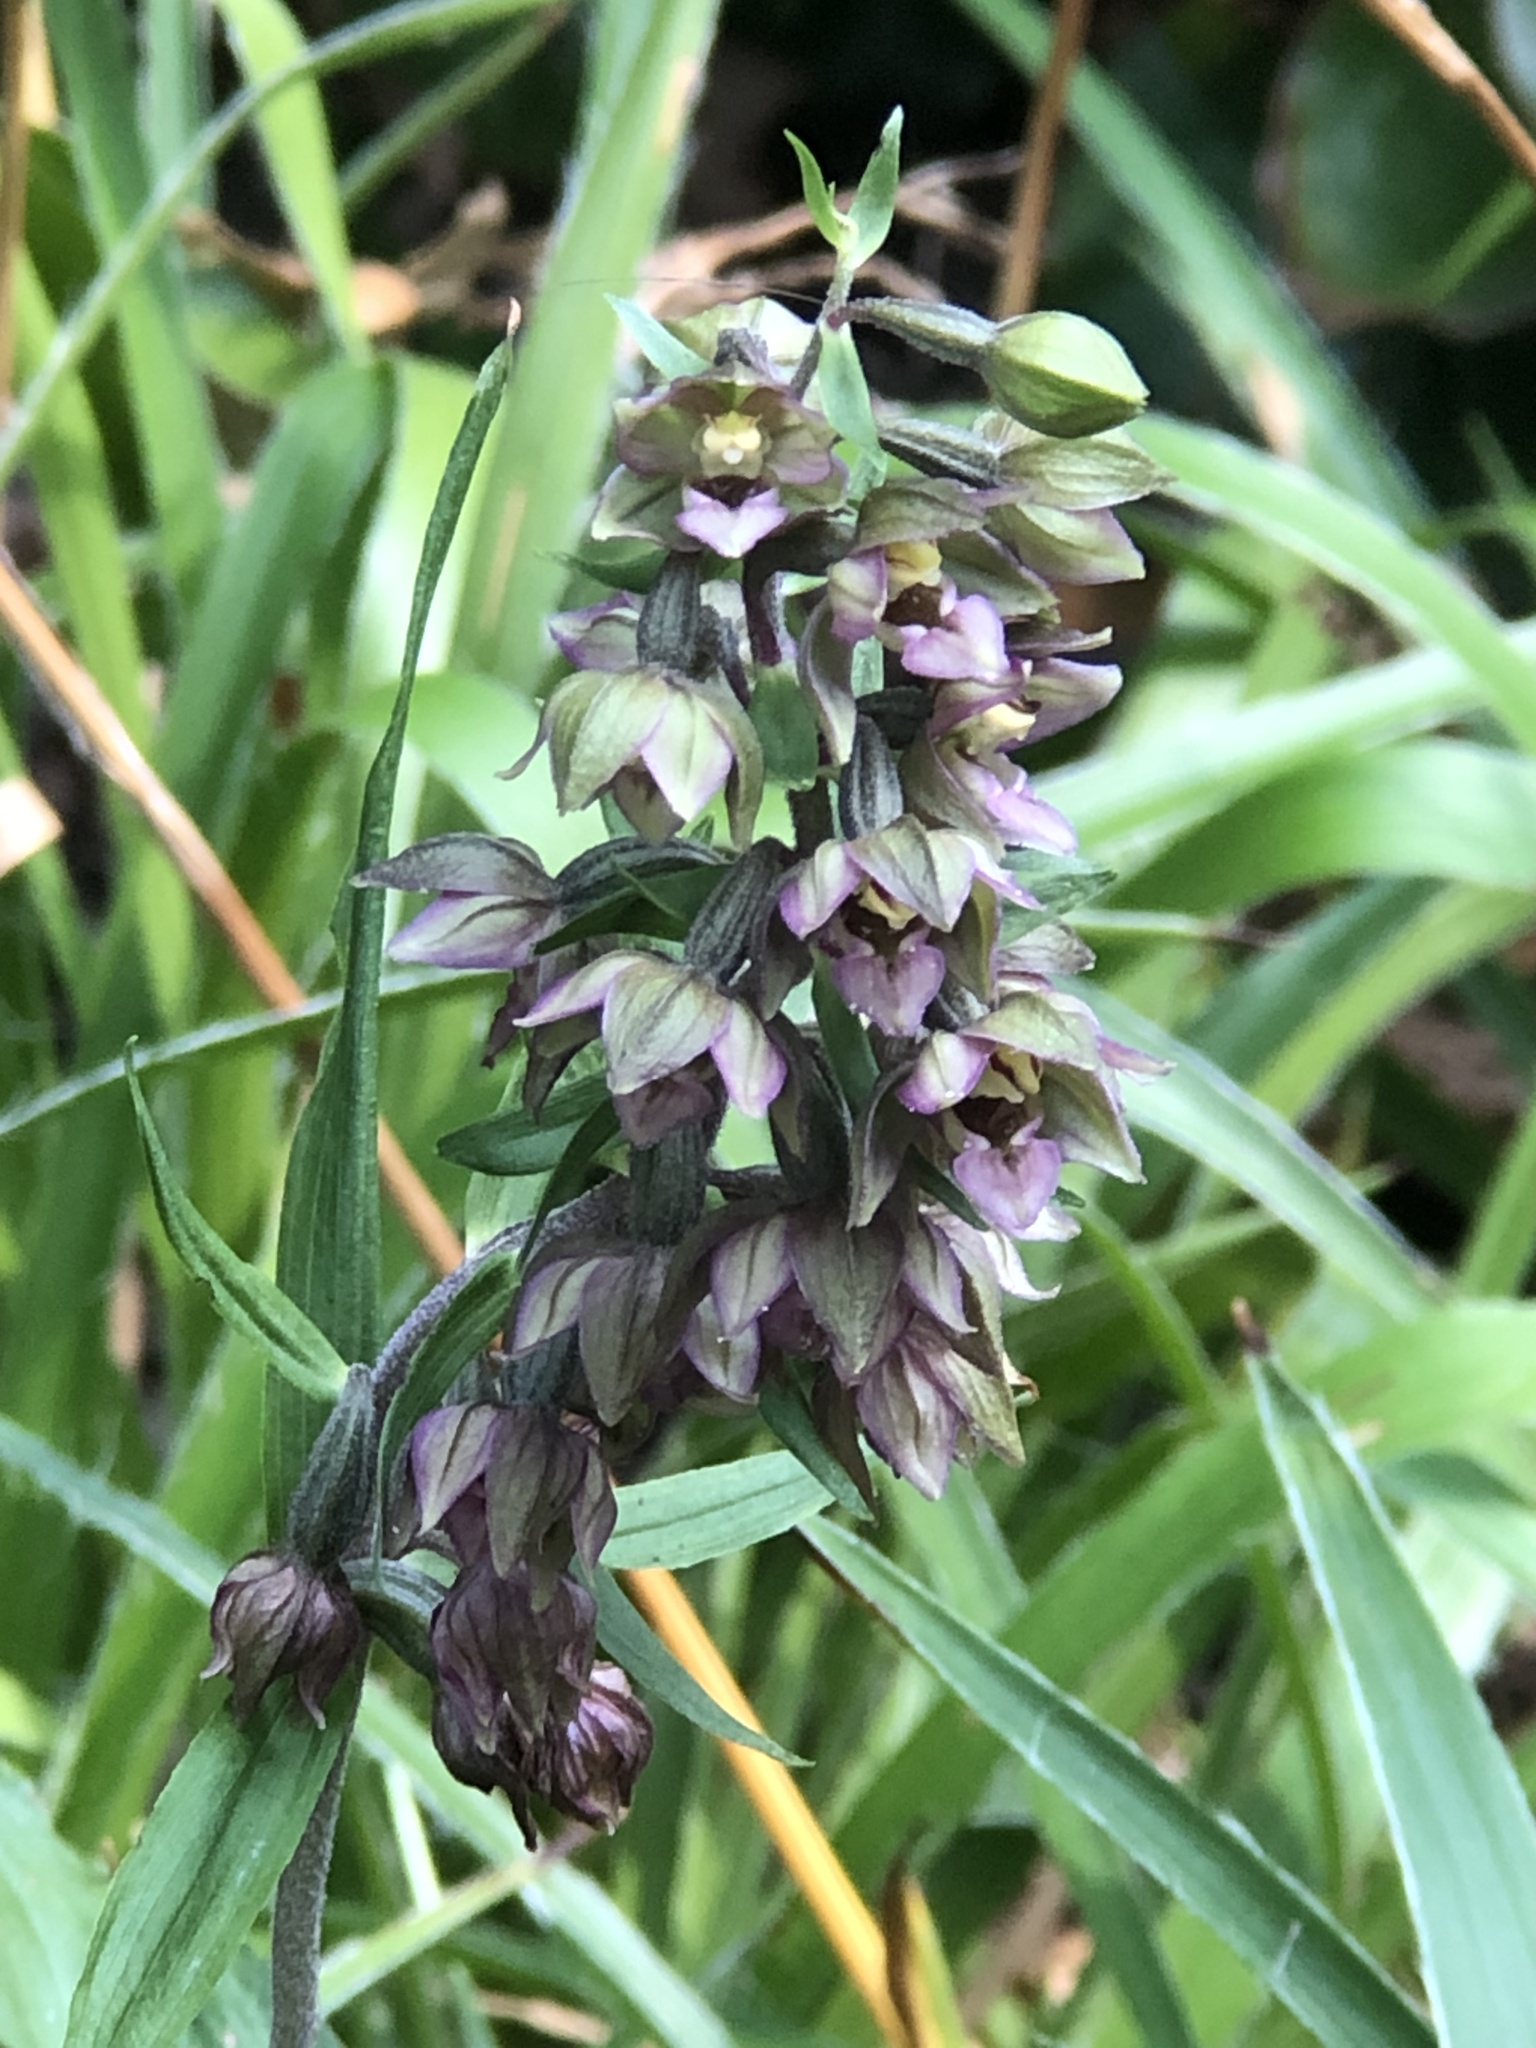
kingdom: Plantae
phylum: Tracheophyta
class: Liliopsida
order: Asparagales
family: Orchidaceae
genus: Epipactis
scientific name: Epipactis helleborine
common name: Broad-leaved helleborine
